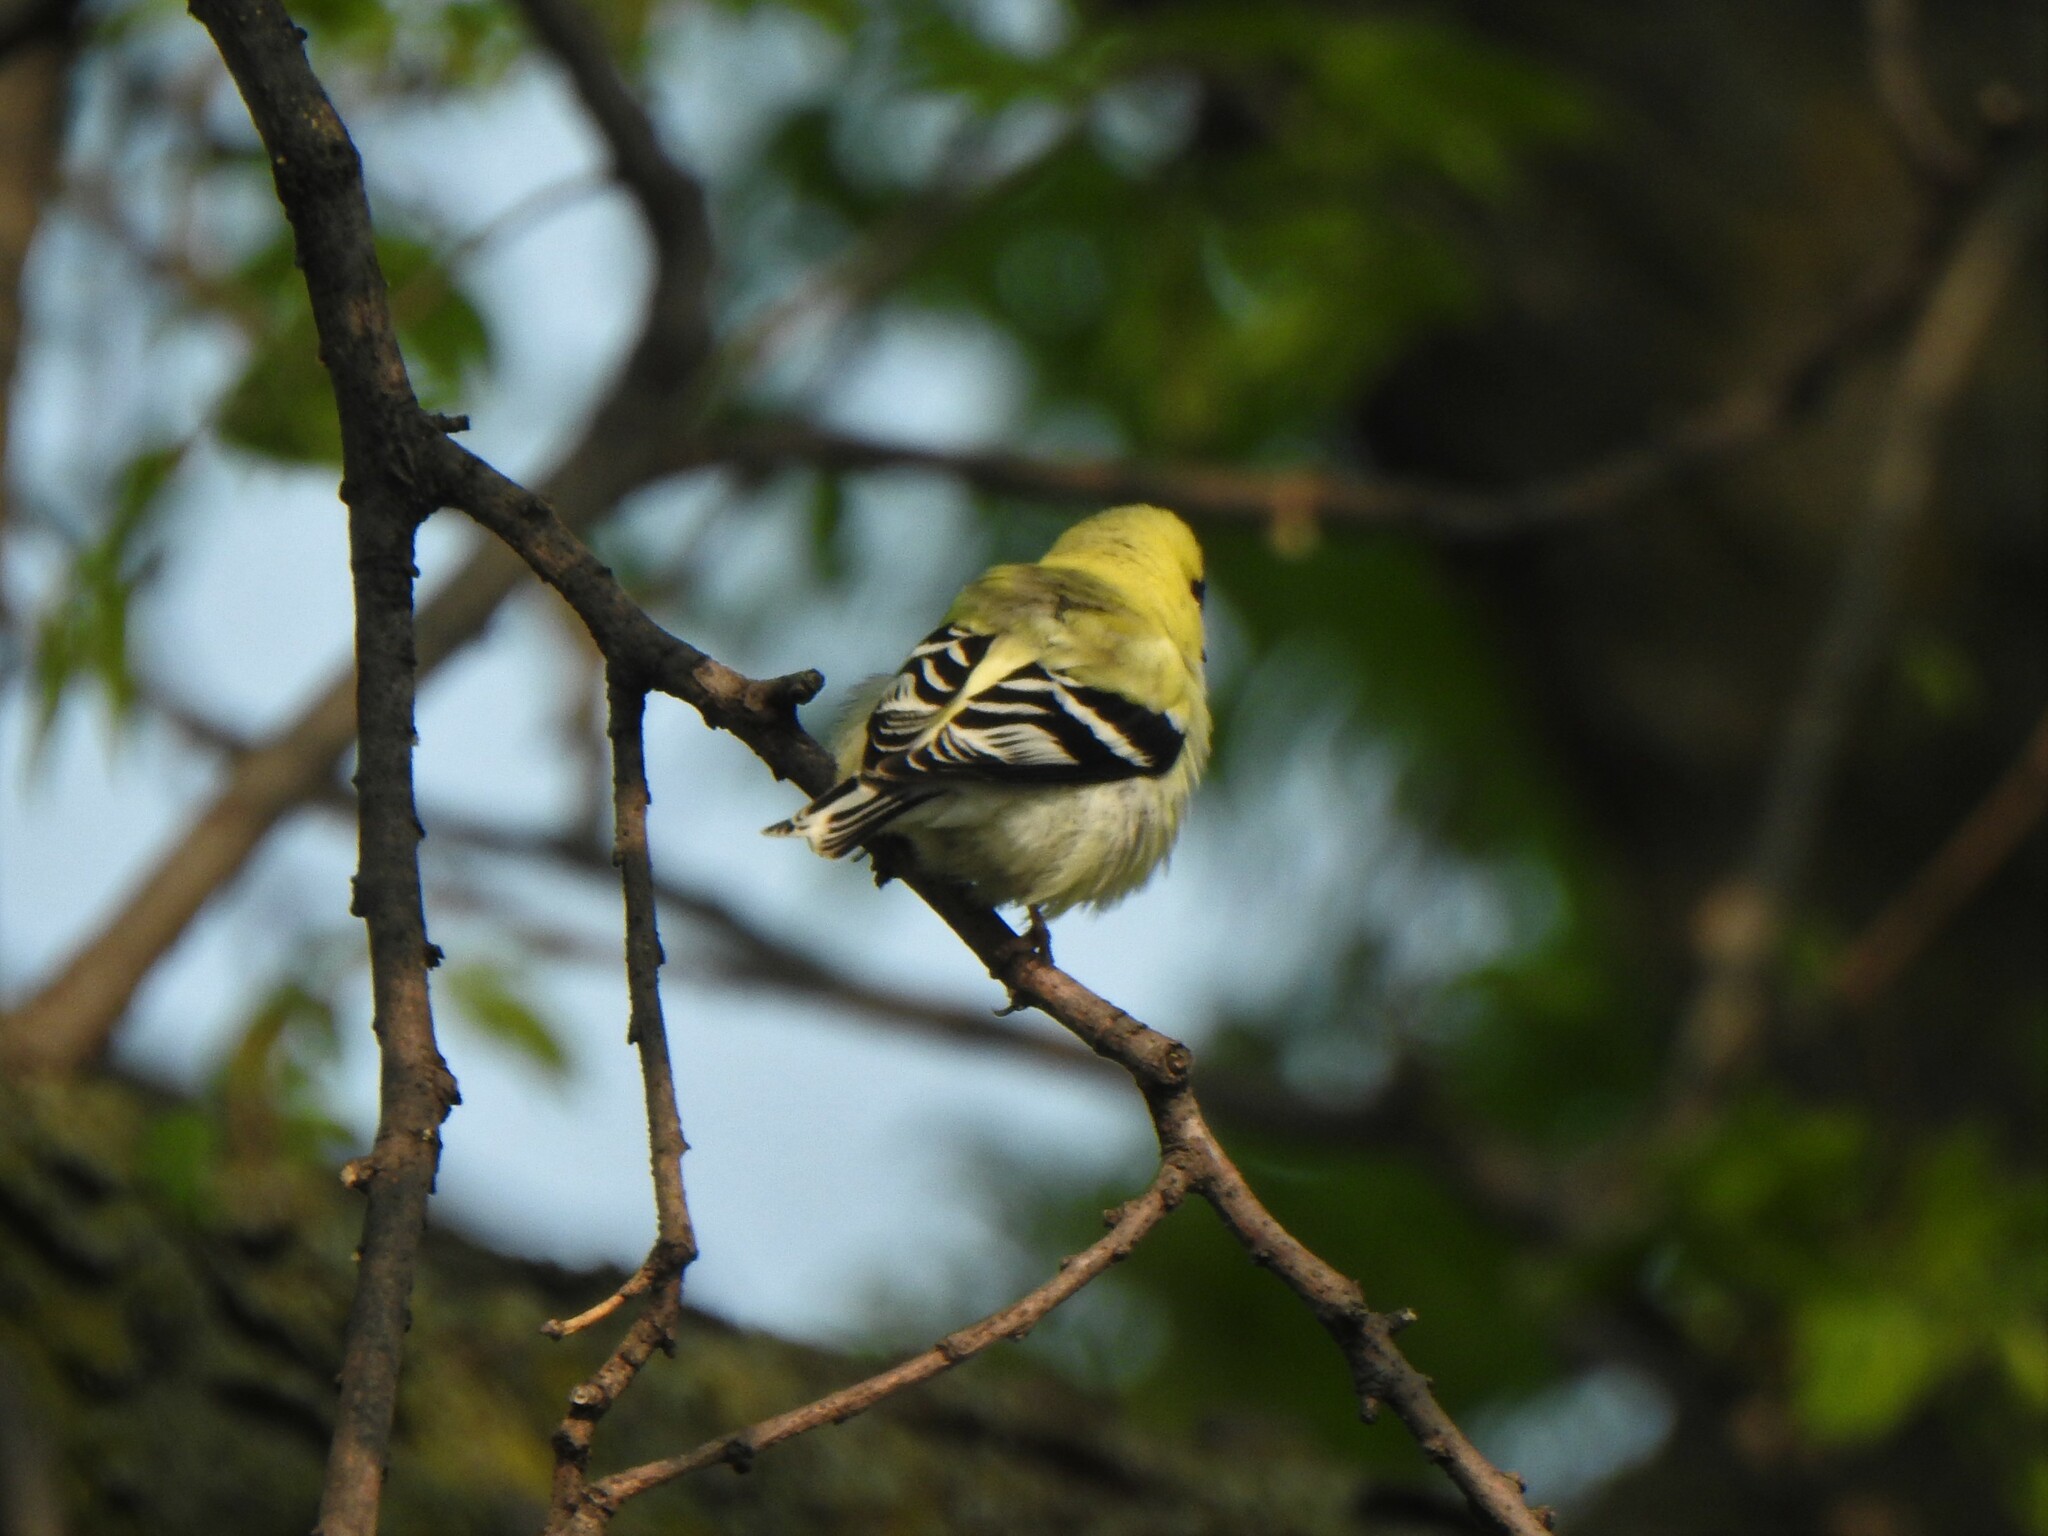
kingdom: Animalia
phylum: Chordata
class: Aves
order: Passeriformes
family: Fringillidae
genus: Spinus
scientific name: Spinus tristis
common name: American goldfinch
